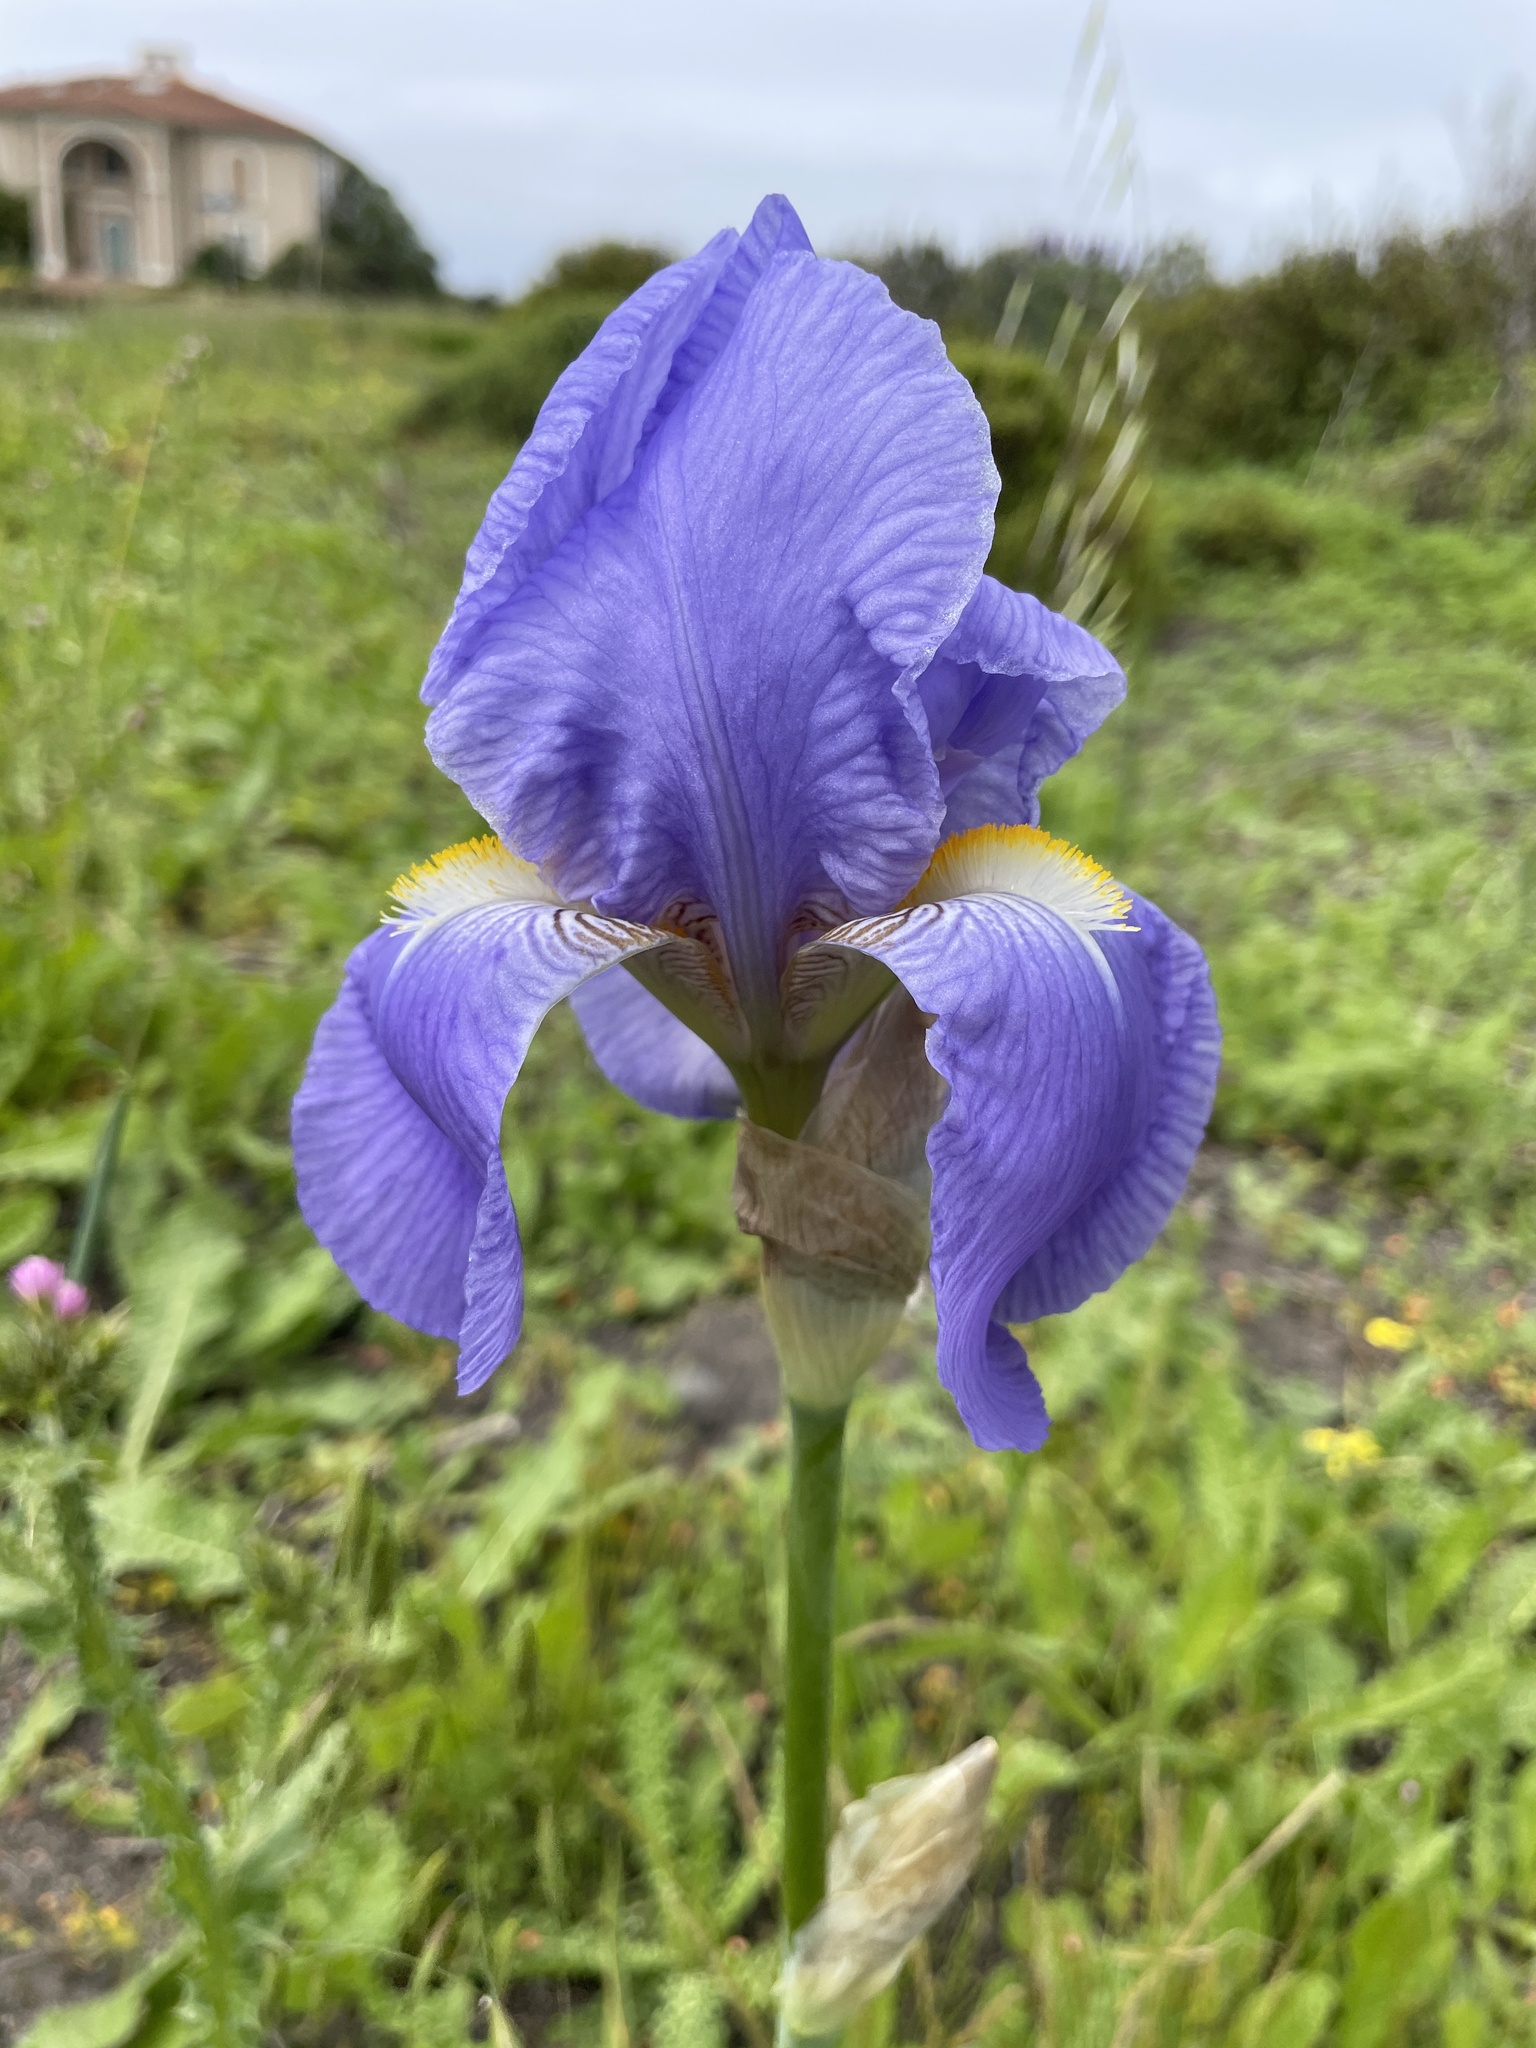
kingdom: Plantae
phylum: Tracheophyta
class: Liliopsida
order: Asparagales
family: Iridaceae
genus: Iris
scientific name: Iris pallida
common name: Sweet iris
